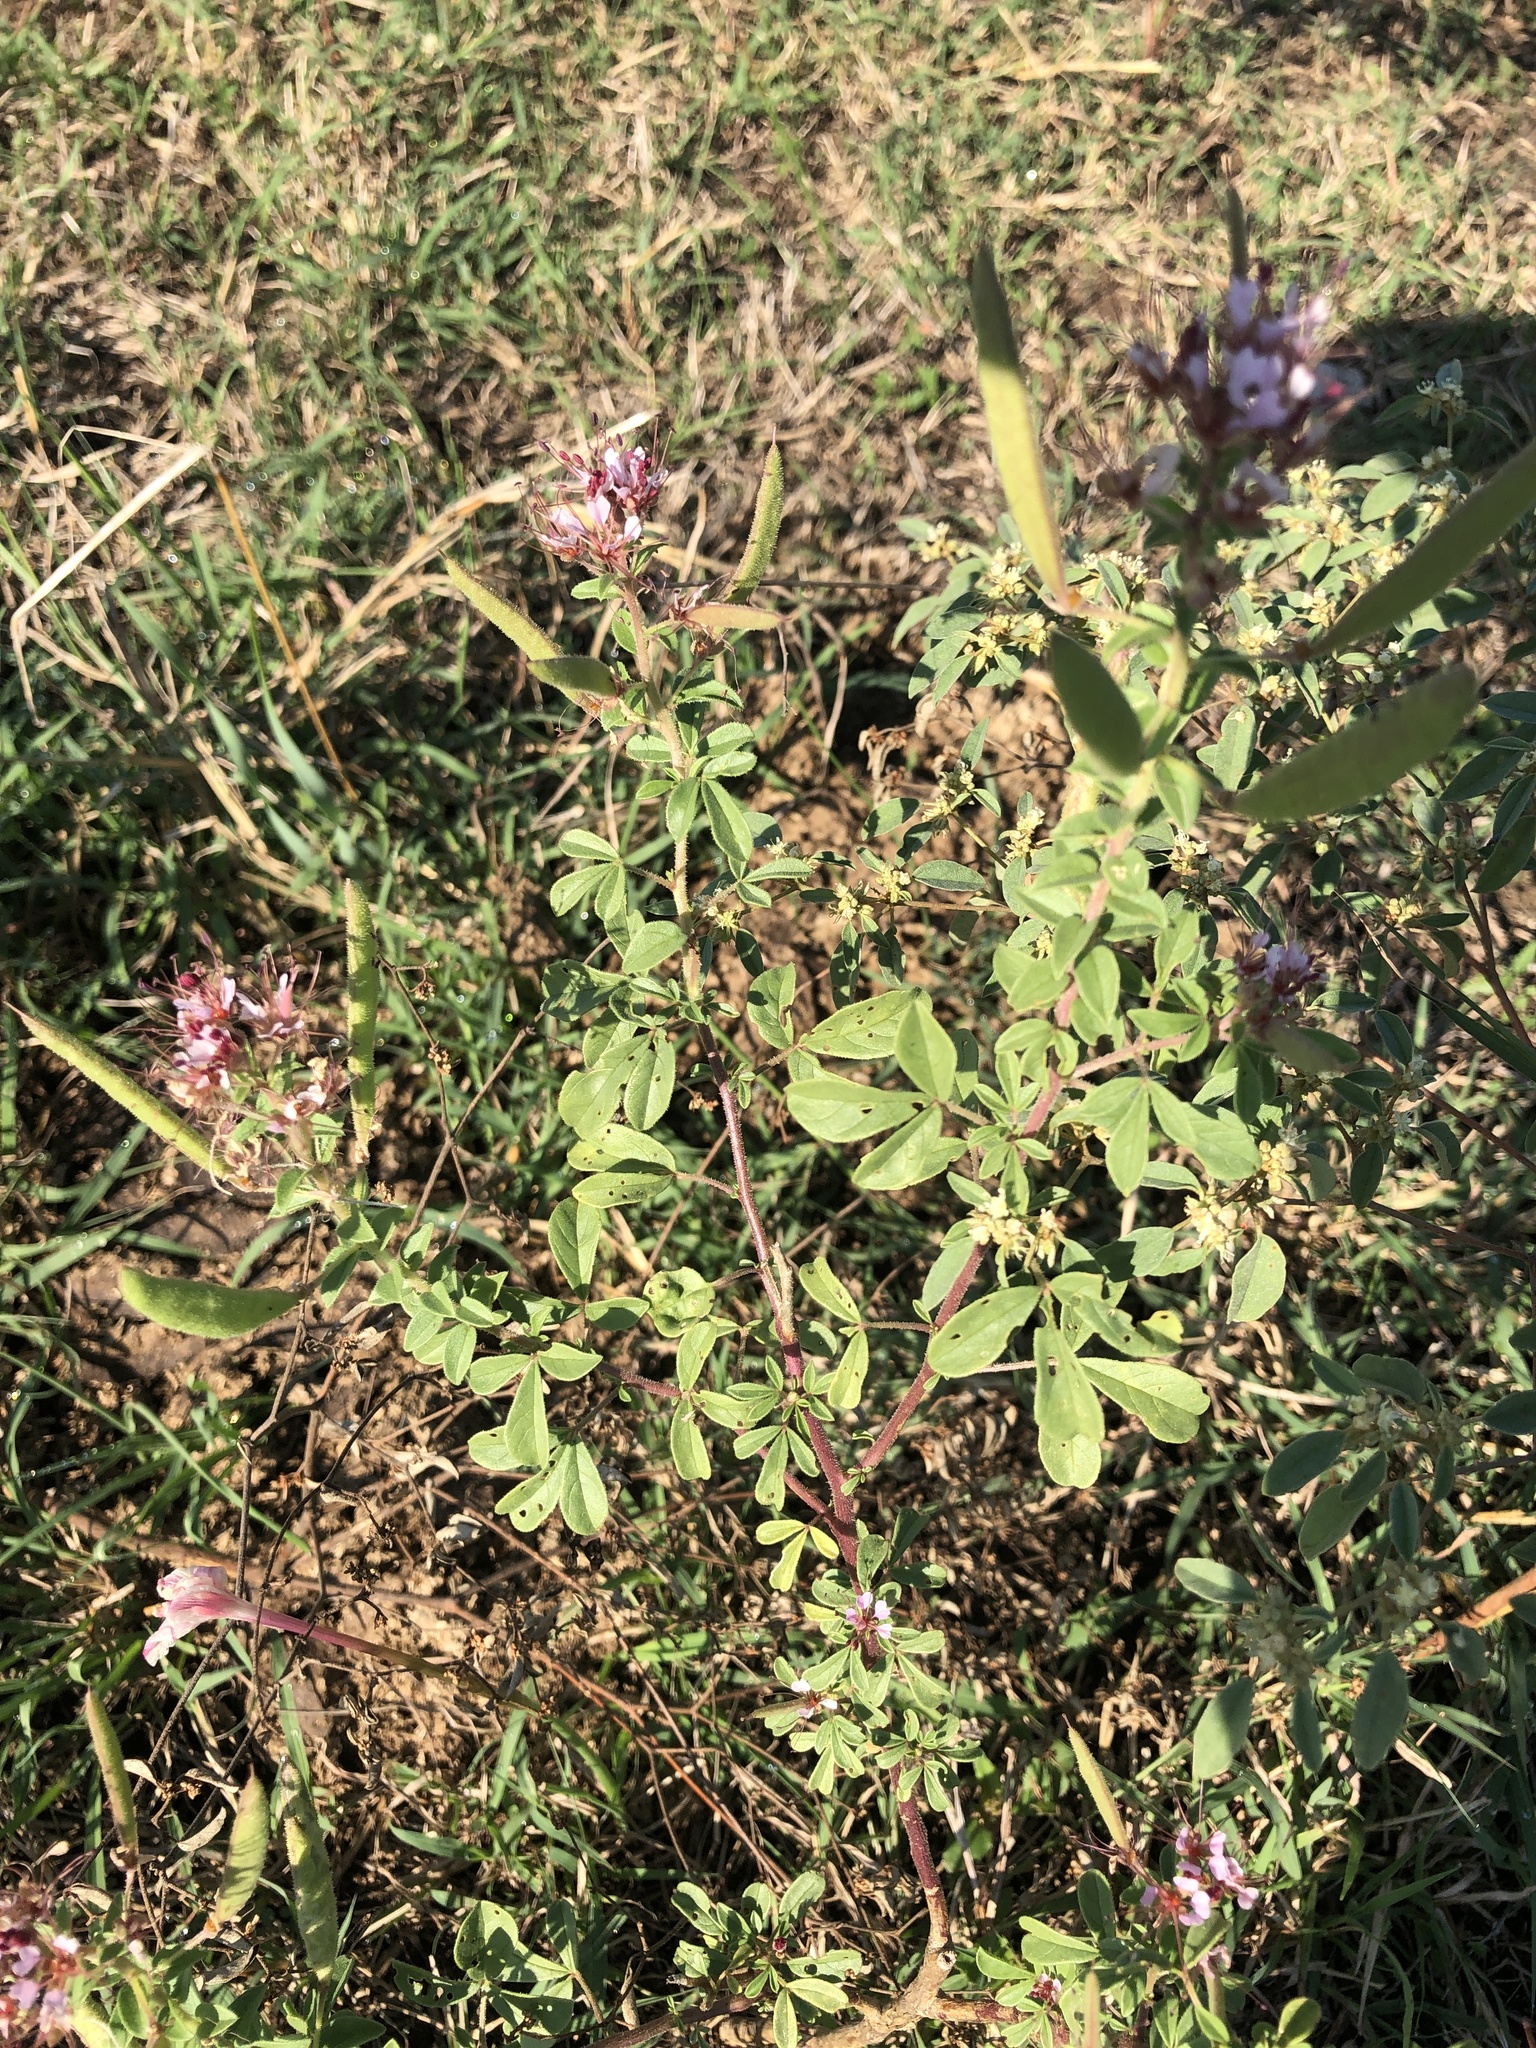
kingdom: Plantae
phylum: Tracheophyta
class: Magnoliopsida
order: Brassicales
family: Cleomaceae
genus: Polanisia
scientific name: Polanisia dodecandra
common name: Clammyweed
